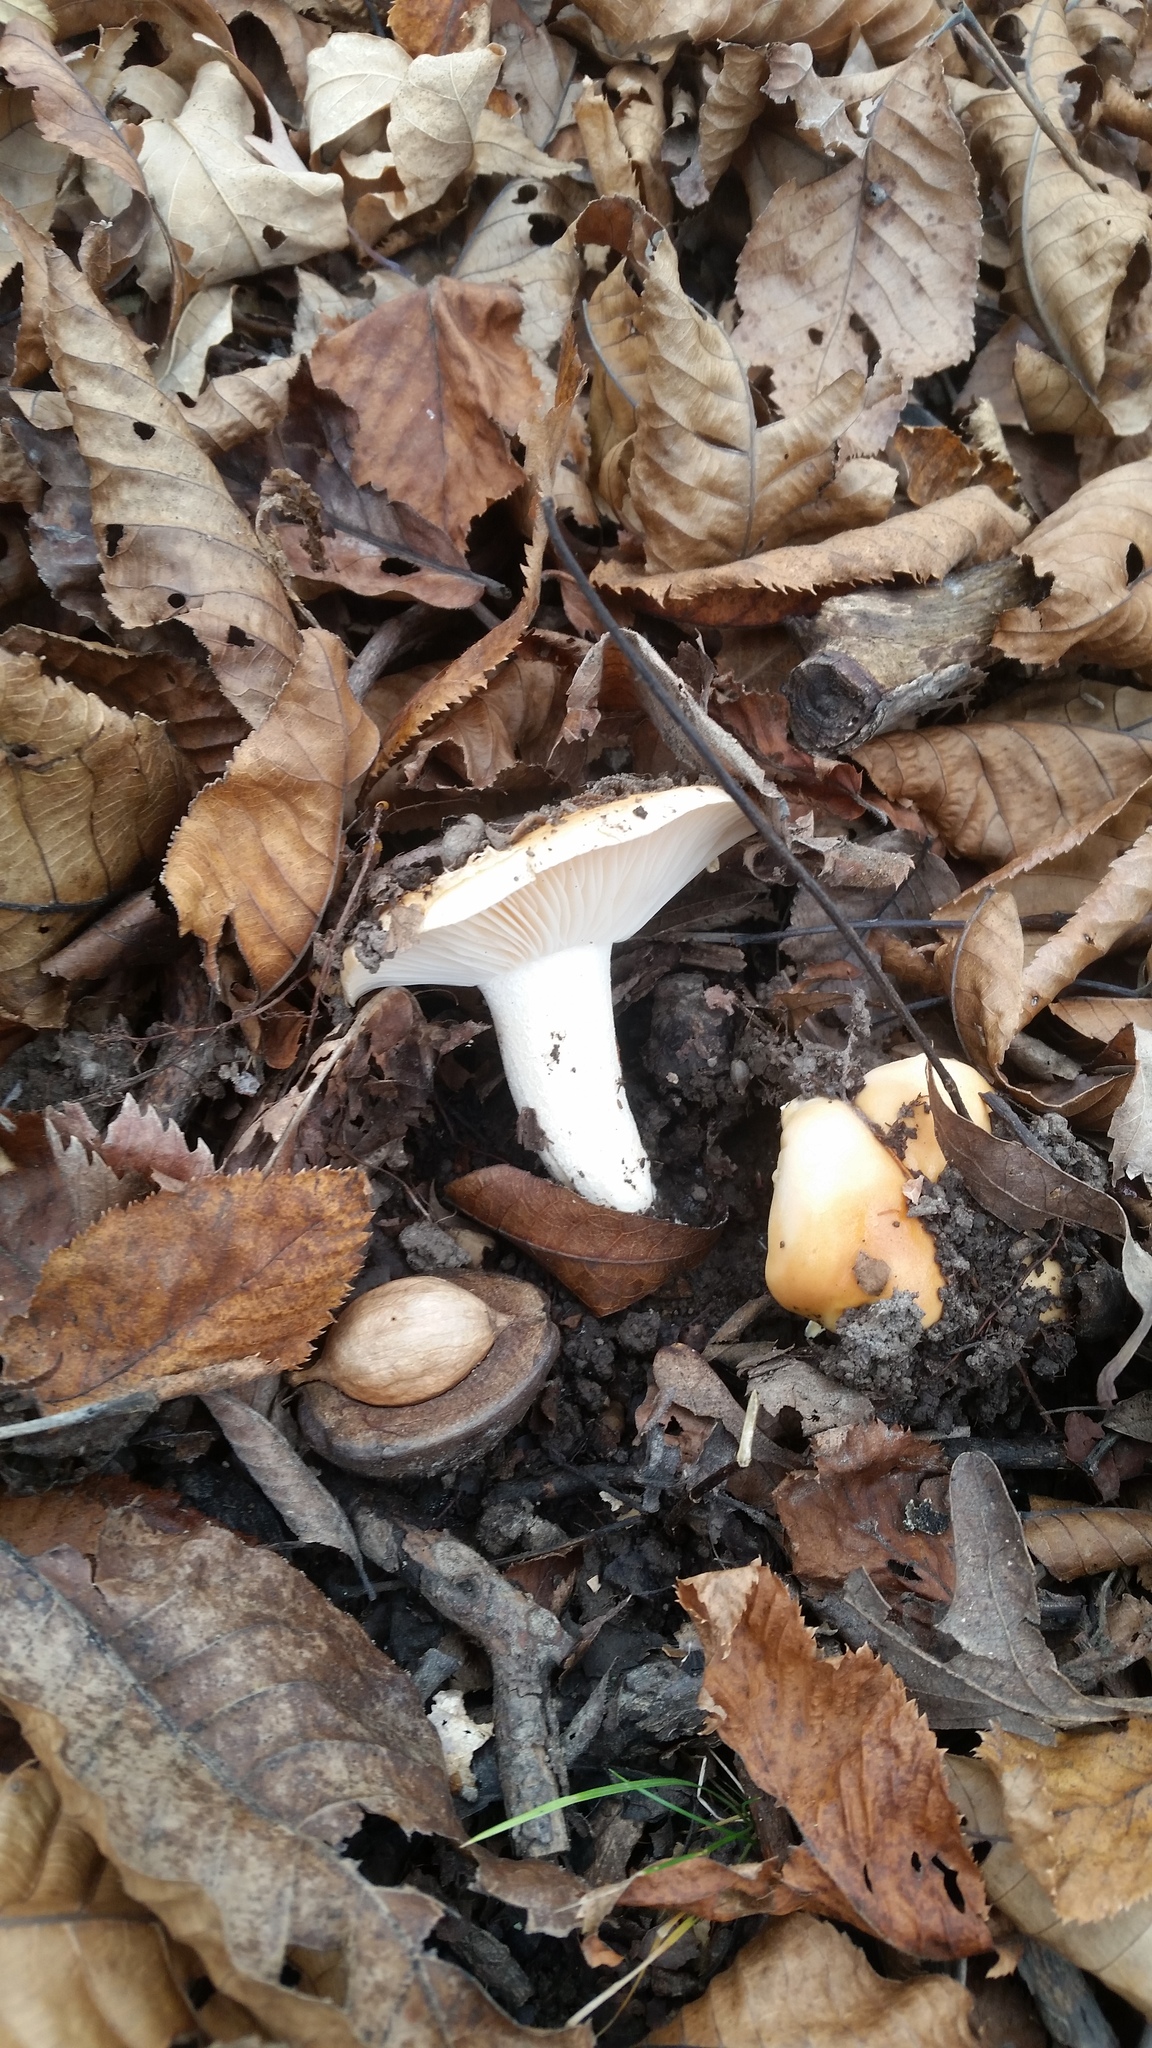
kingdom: Fungi
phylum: Basidiomycota
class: Agaricomycetes
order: Agaricales
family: Hygrophoraceae
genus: Hygrophorus
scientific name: Hygrophorus subsalmonius
